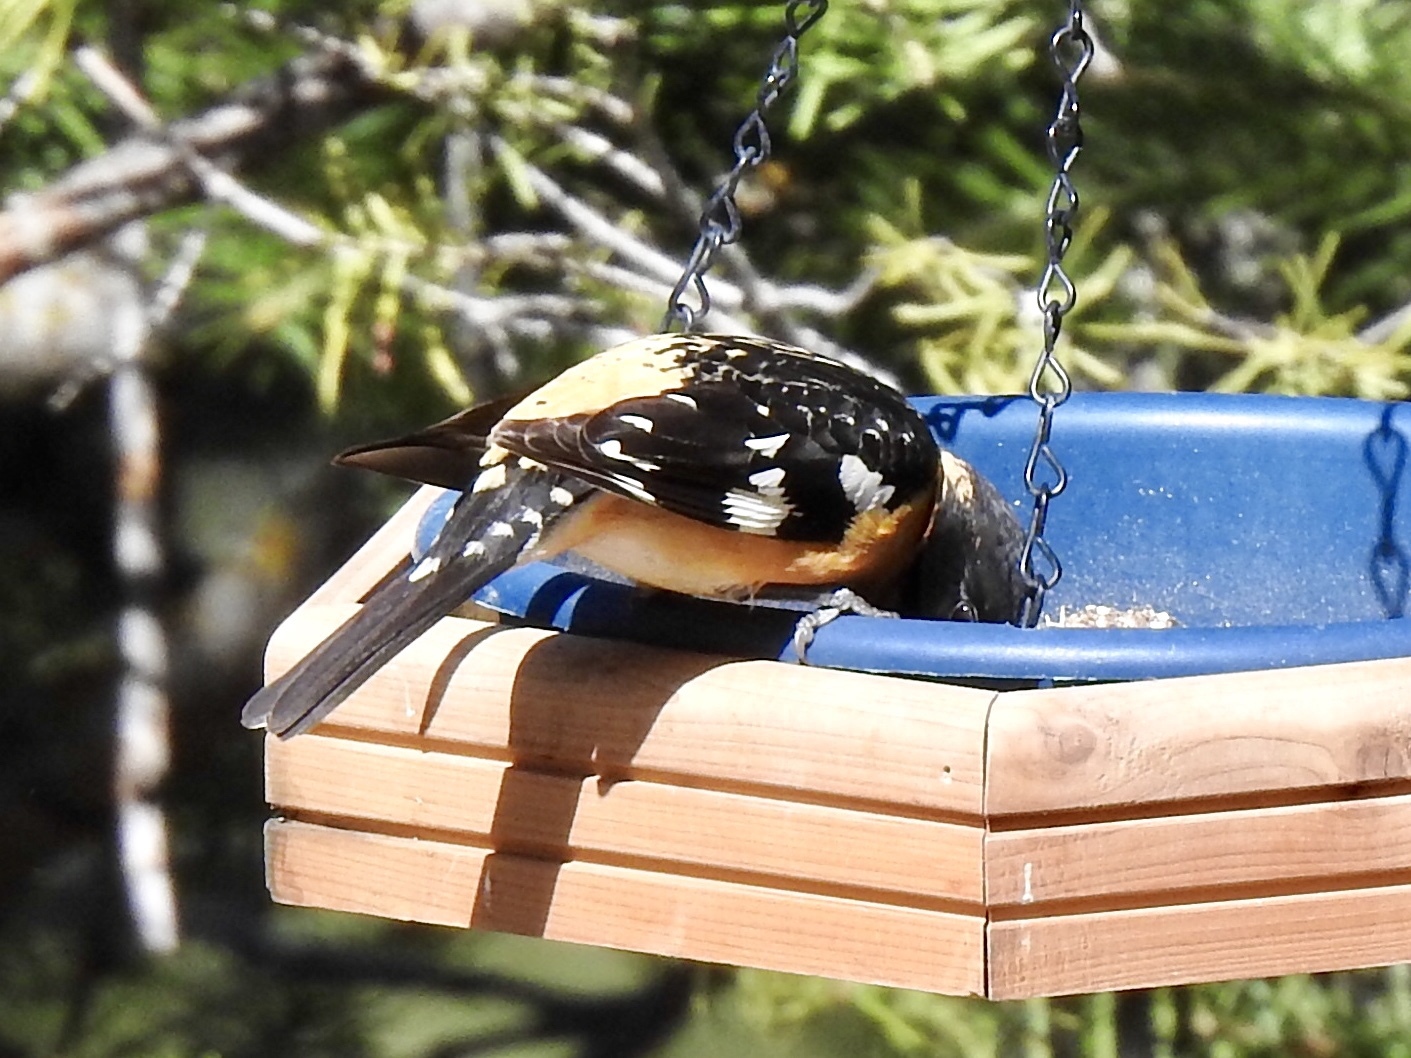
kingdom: Animalia
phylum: Chordata
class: Aves
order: Passeriformes
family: Cardinalidae
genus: Pheucticus
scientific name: Pheucticus melanocephalus
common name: Black-headed grosbeak
